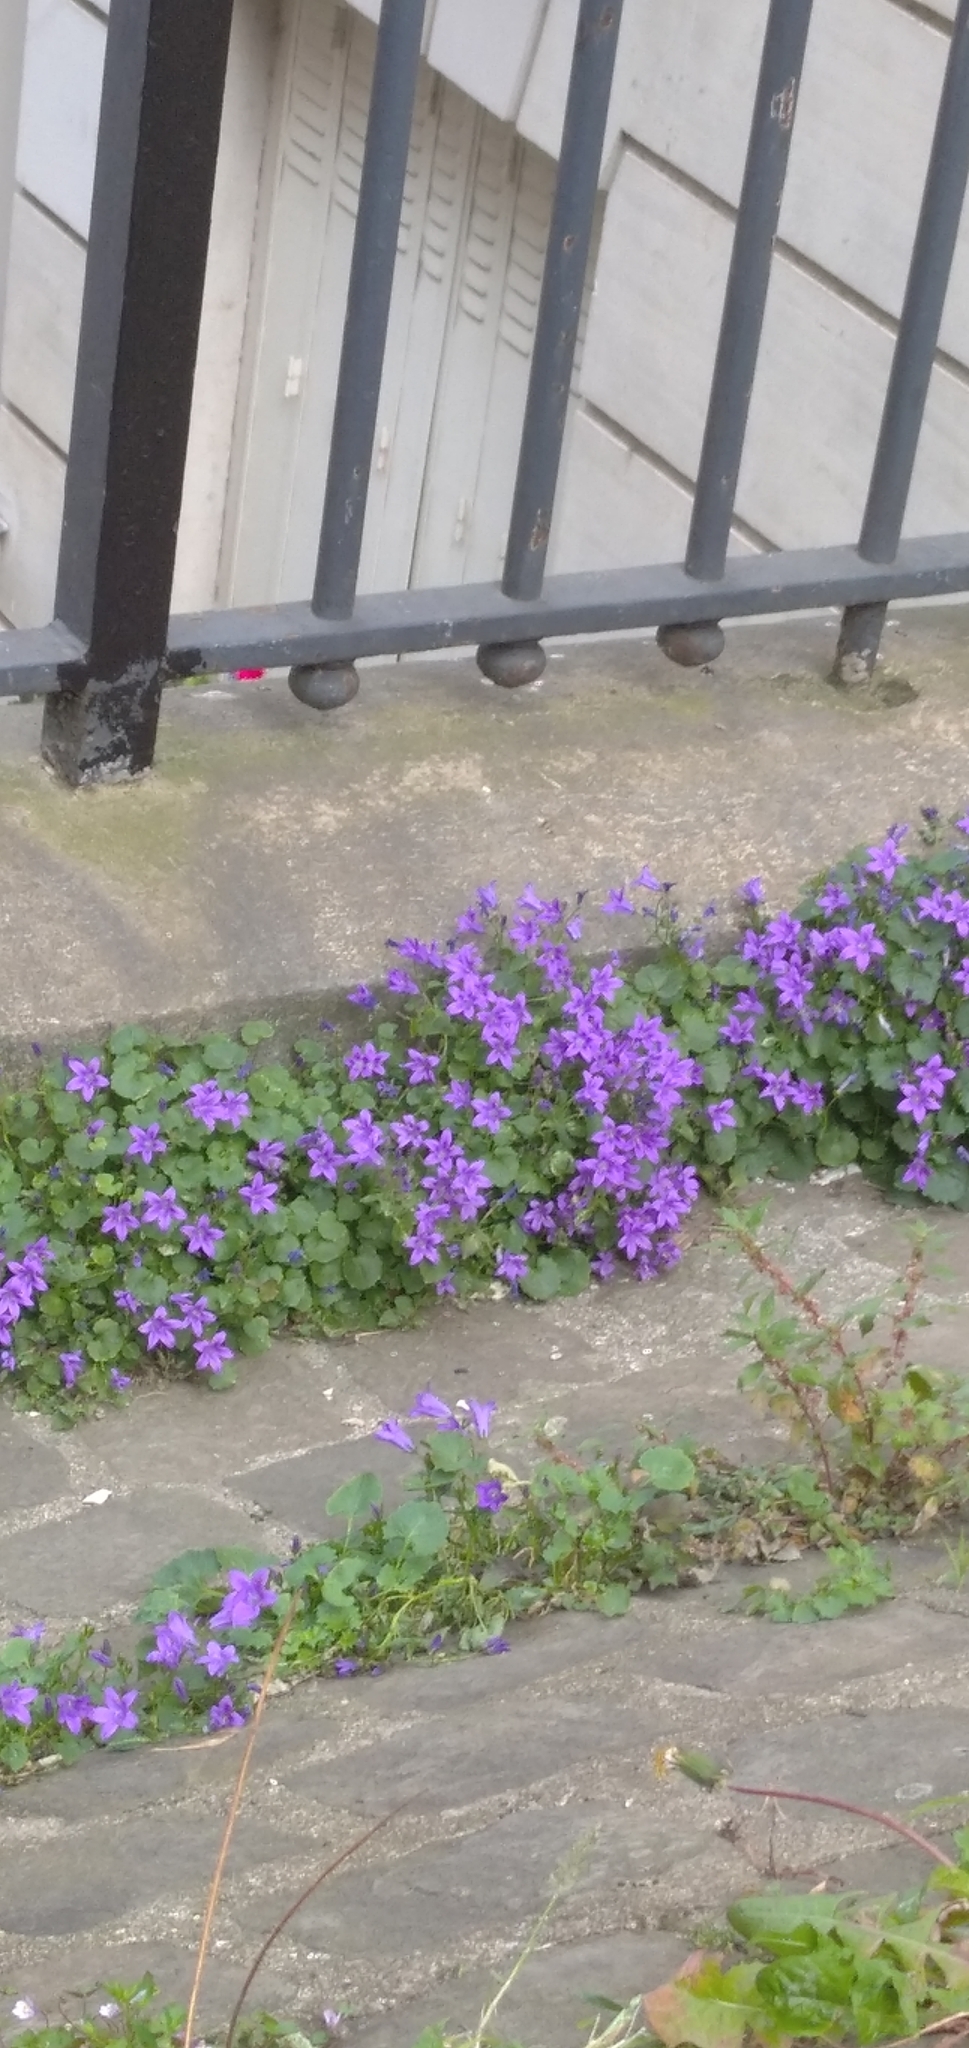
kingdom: Plantae
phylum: Tracheophyta
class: Magnoliopsida
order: Asterales
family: Campanulaceae
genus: Campanula
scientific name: Campanula portenschlagiana
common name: Adria bellflower
